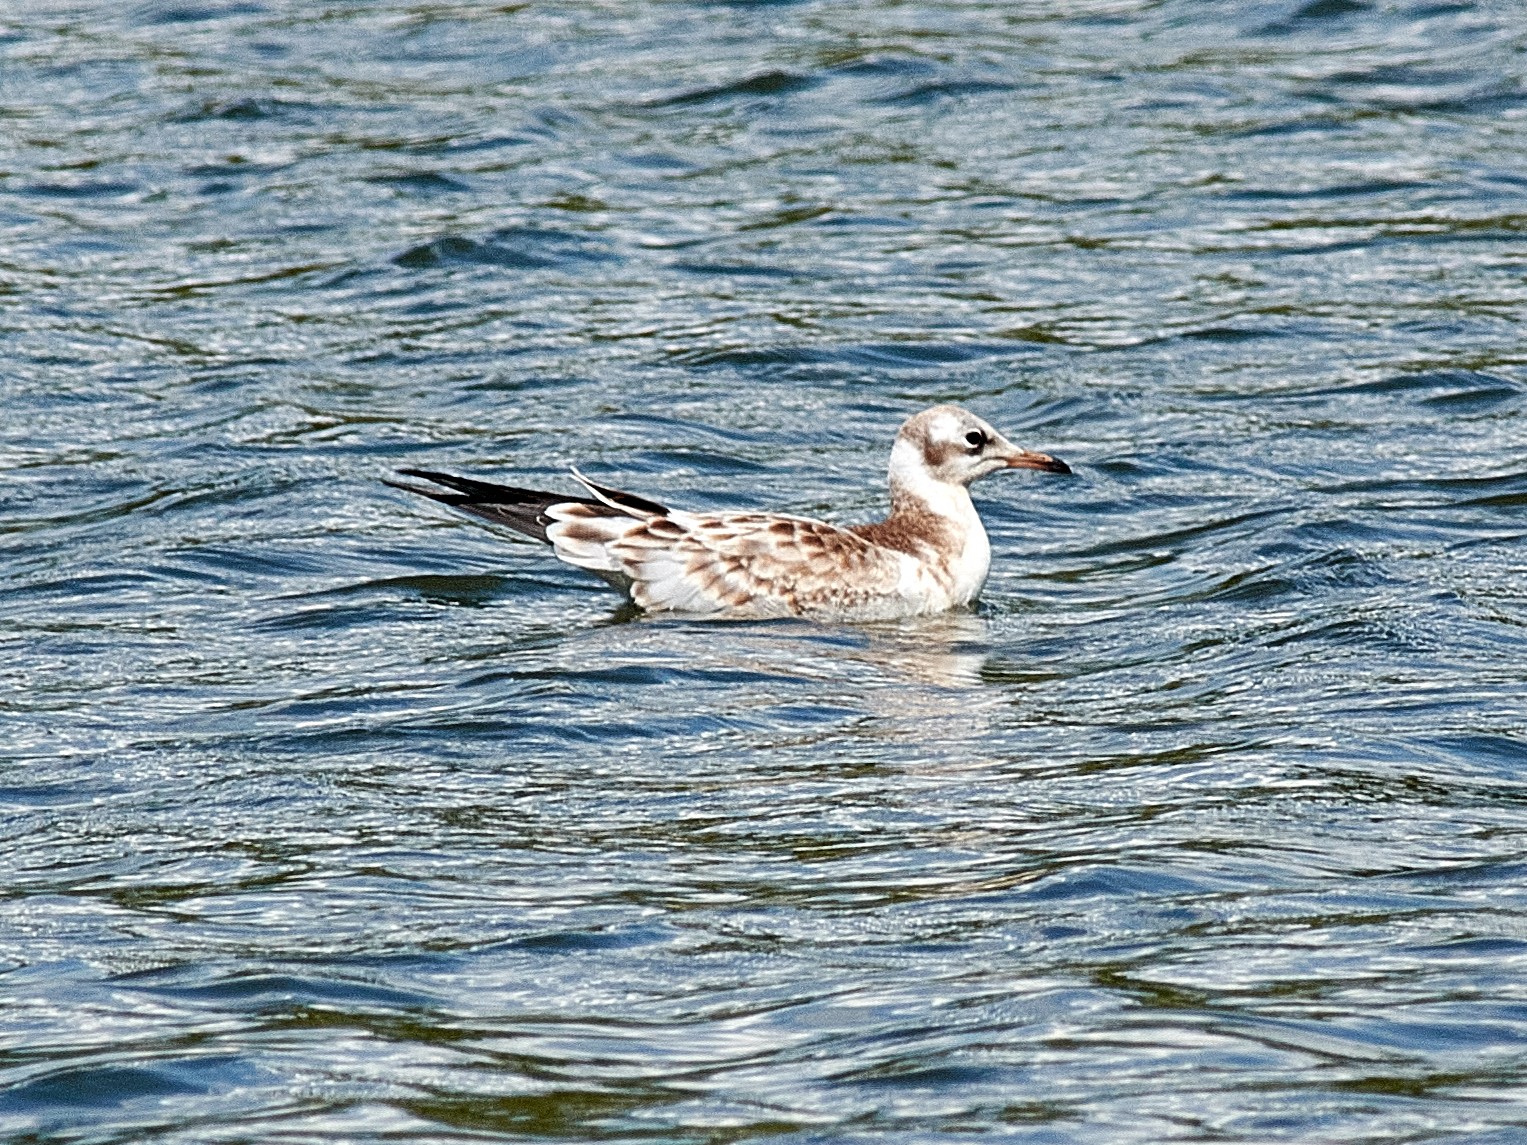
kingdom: Animalia
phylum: Chordata
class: Aves
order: Charadriiformes
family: Laridae
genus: Chroicocephalus
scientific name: Chroicocephalus ridibundus
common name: Black-headed gull
